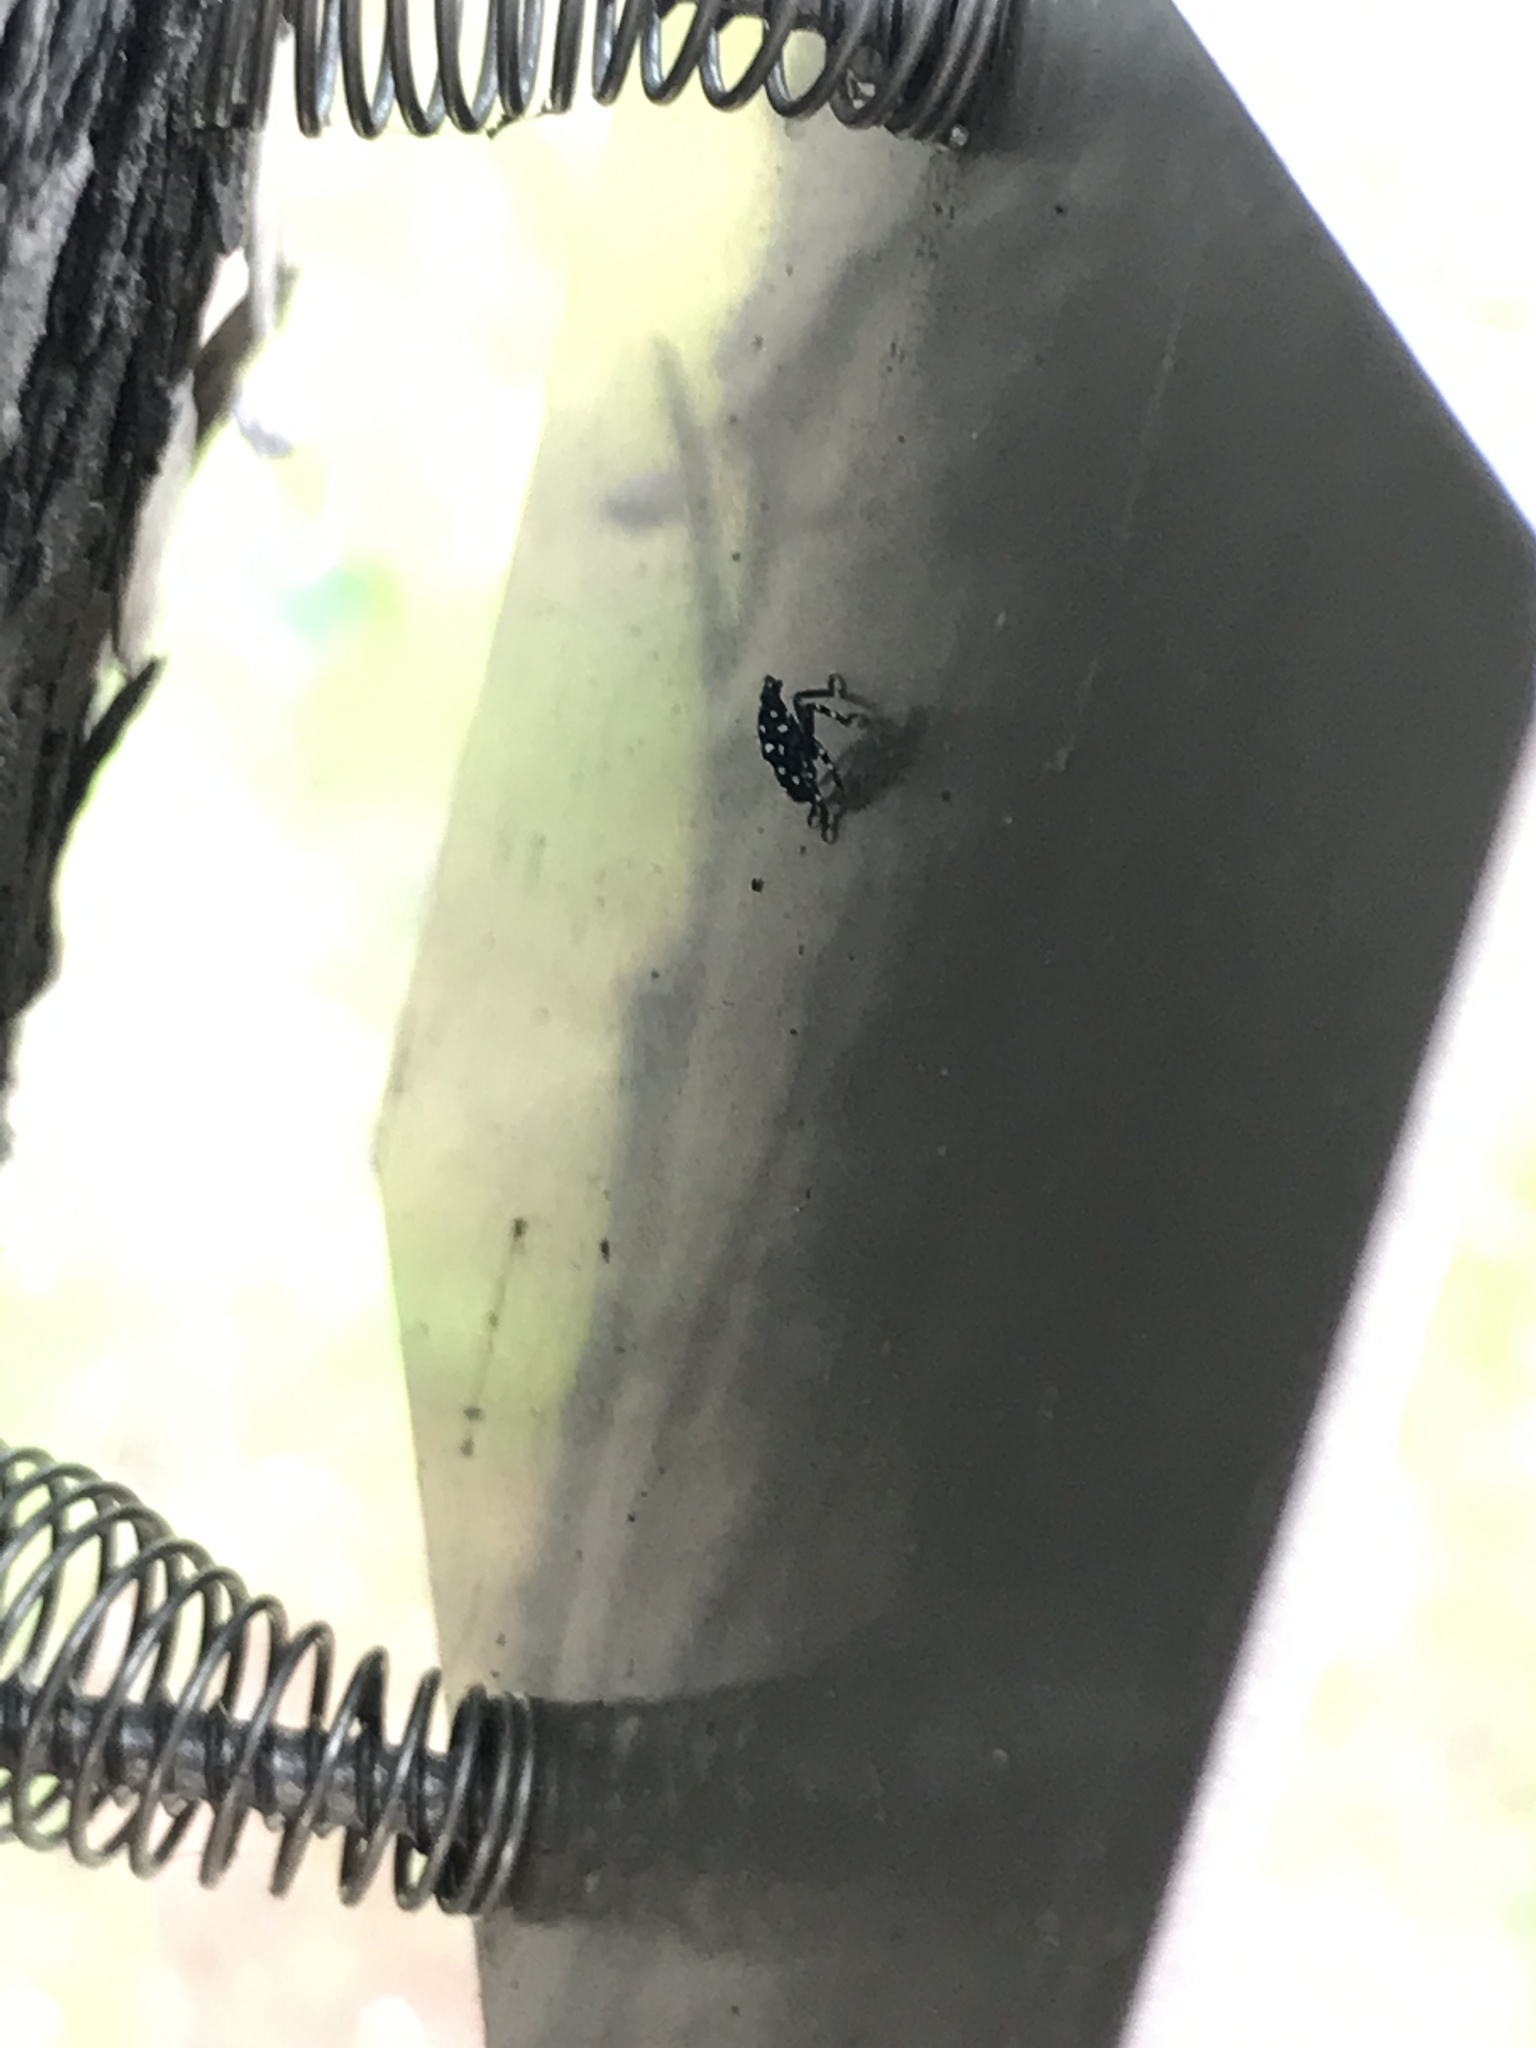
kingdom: Animalia
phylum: Arthropoda
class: Insecta
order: Hemiptera
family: Fulgoridae
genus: Lycorma
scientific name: Lycorma delicatula
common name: Spotted lanternfly
